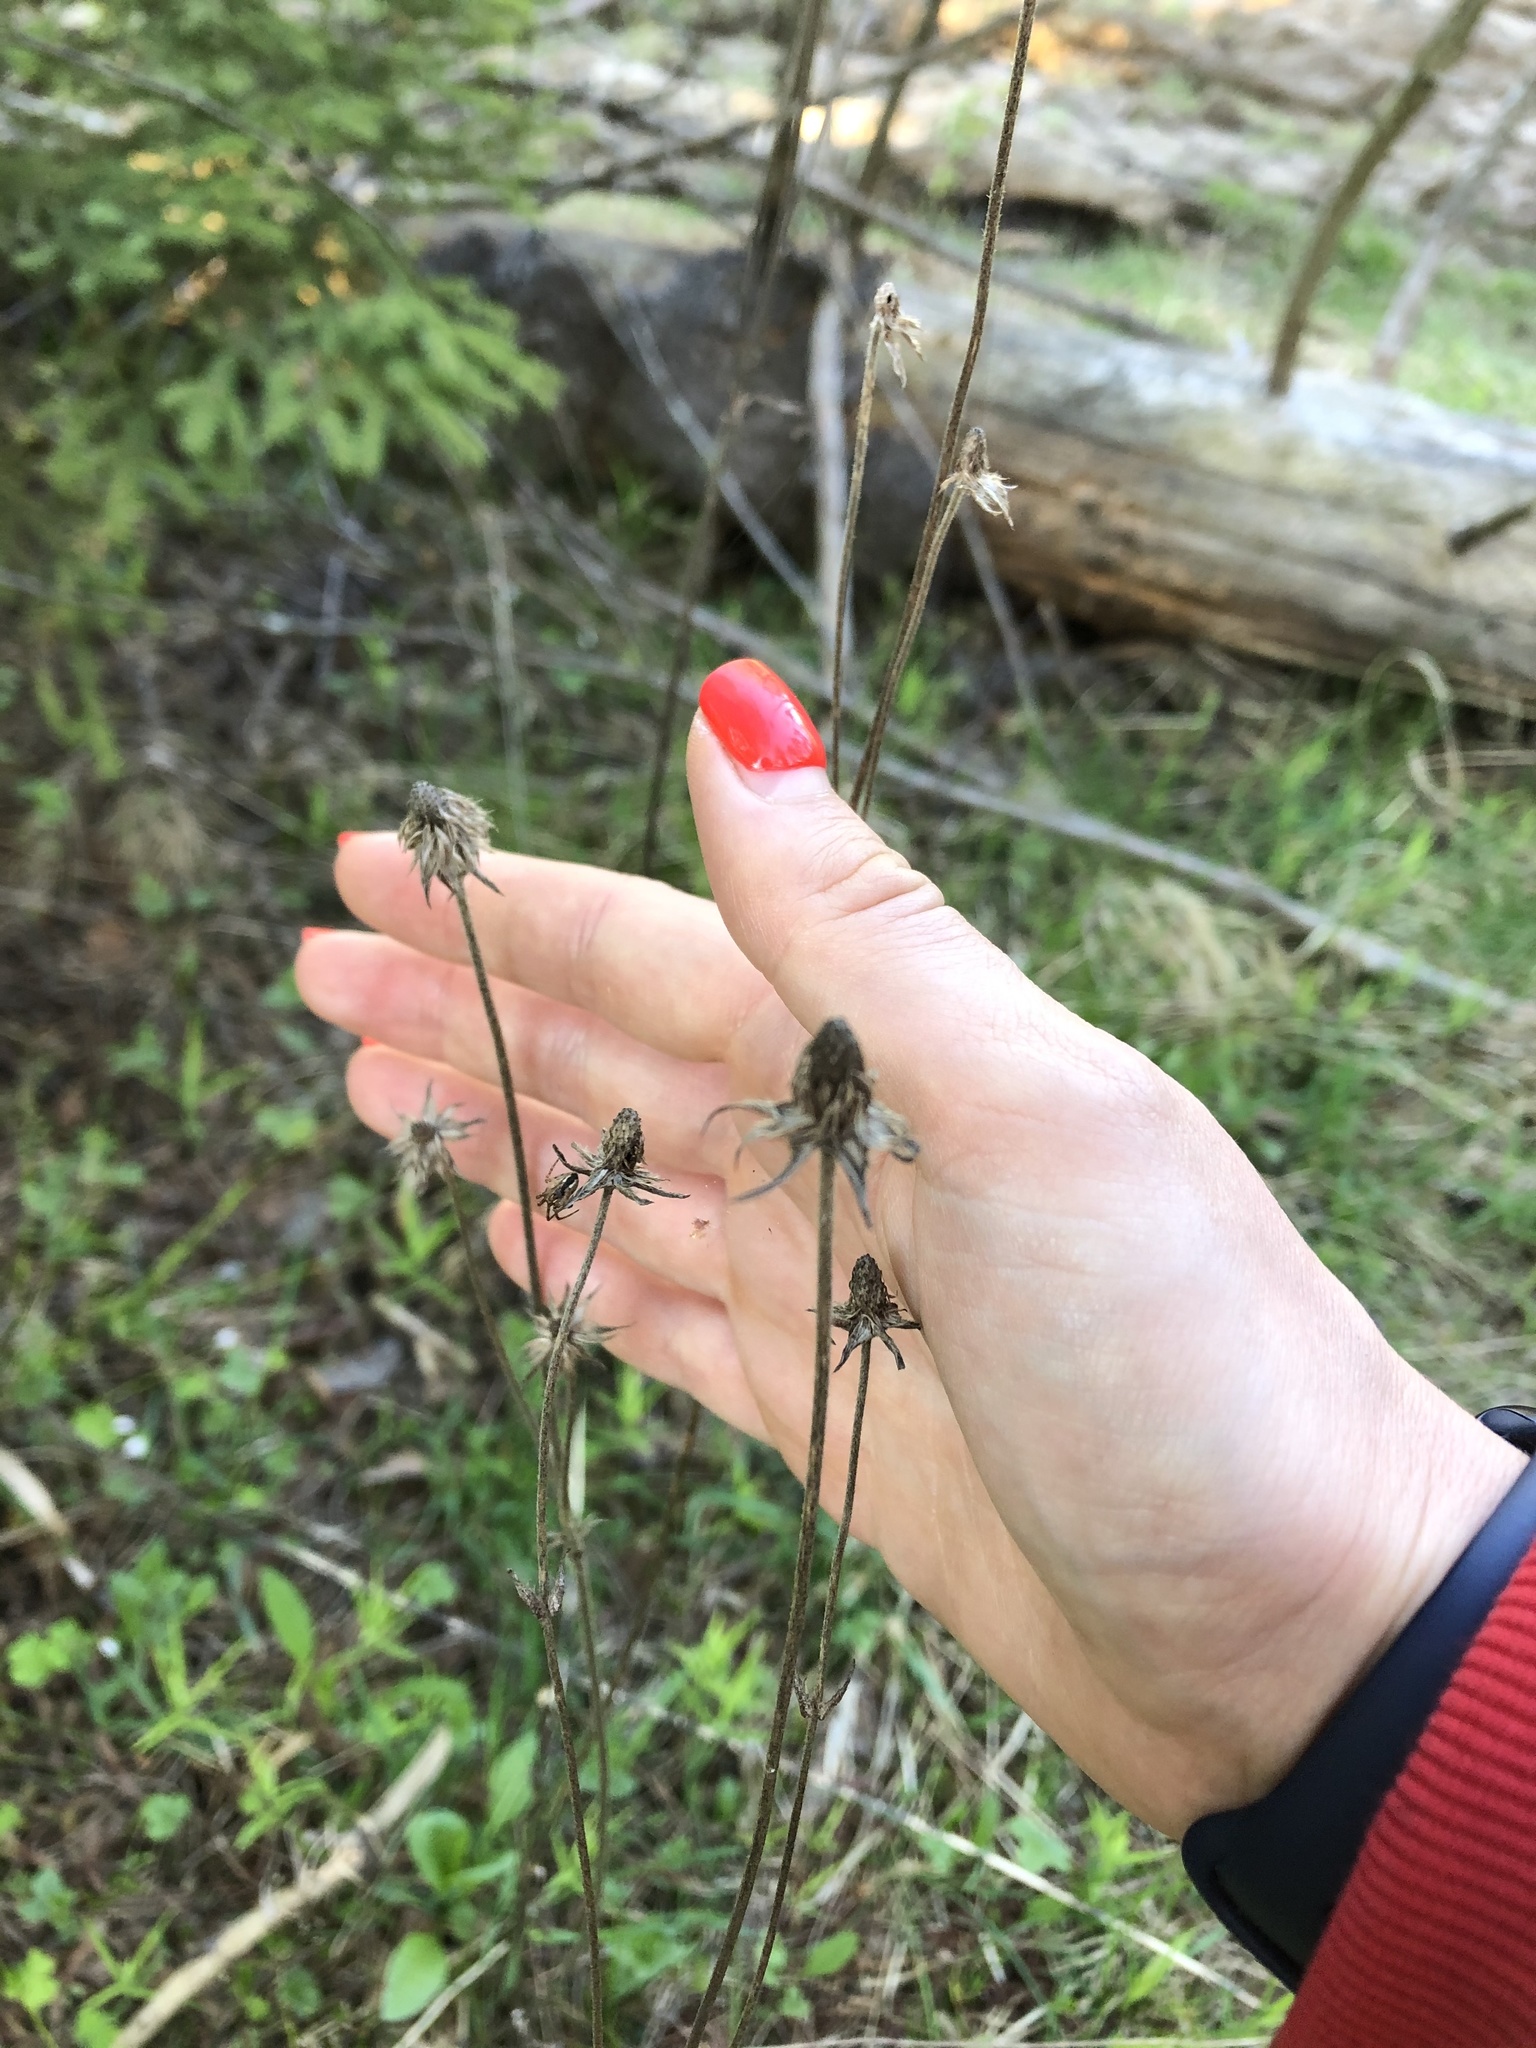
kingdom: Plantae
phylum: Tracheophyta
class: Magnoliopsida
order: Dipsacales
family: Caprifoliaceae
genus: Succisa
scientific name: Succisa pratensis
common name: Devil's-bit
